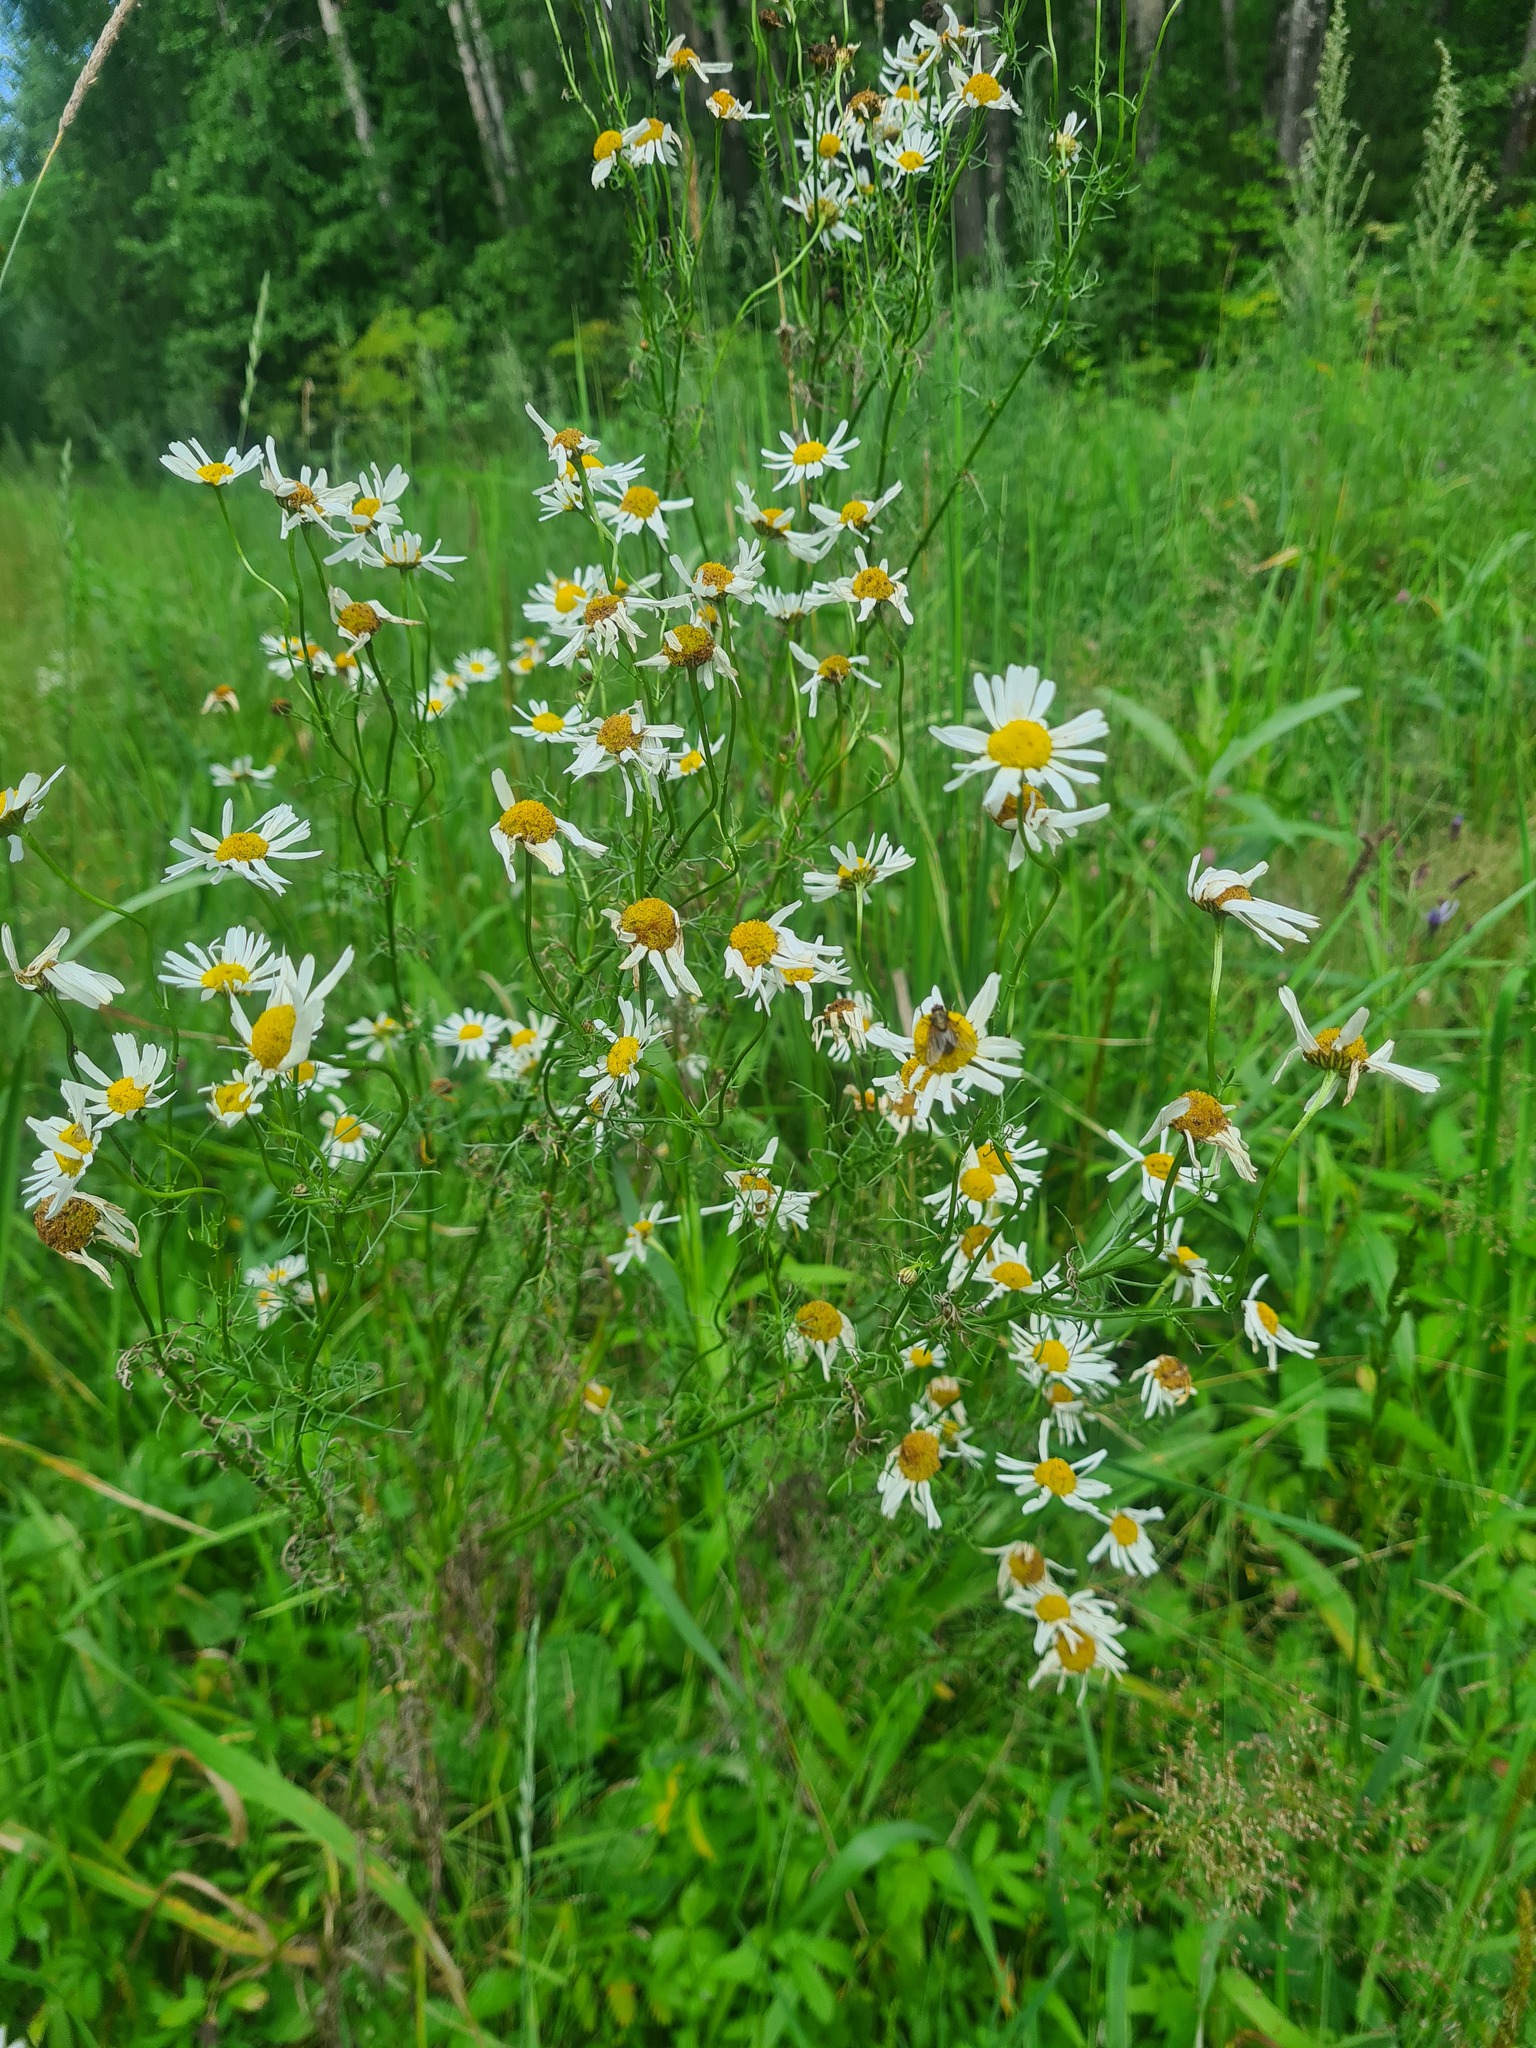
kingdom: Plantae
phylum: Tracheophyta
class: Magnoliopsida
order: Asterales
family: Asteraceae
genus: Tripleurospermum
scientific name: Tripleurospermum inodorum
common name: Scentless mayweed
